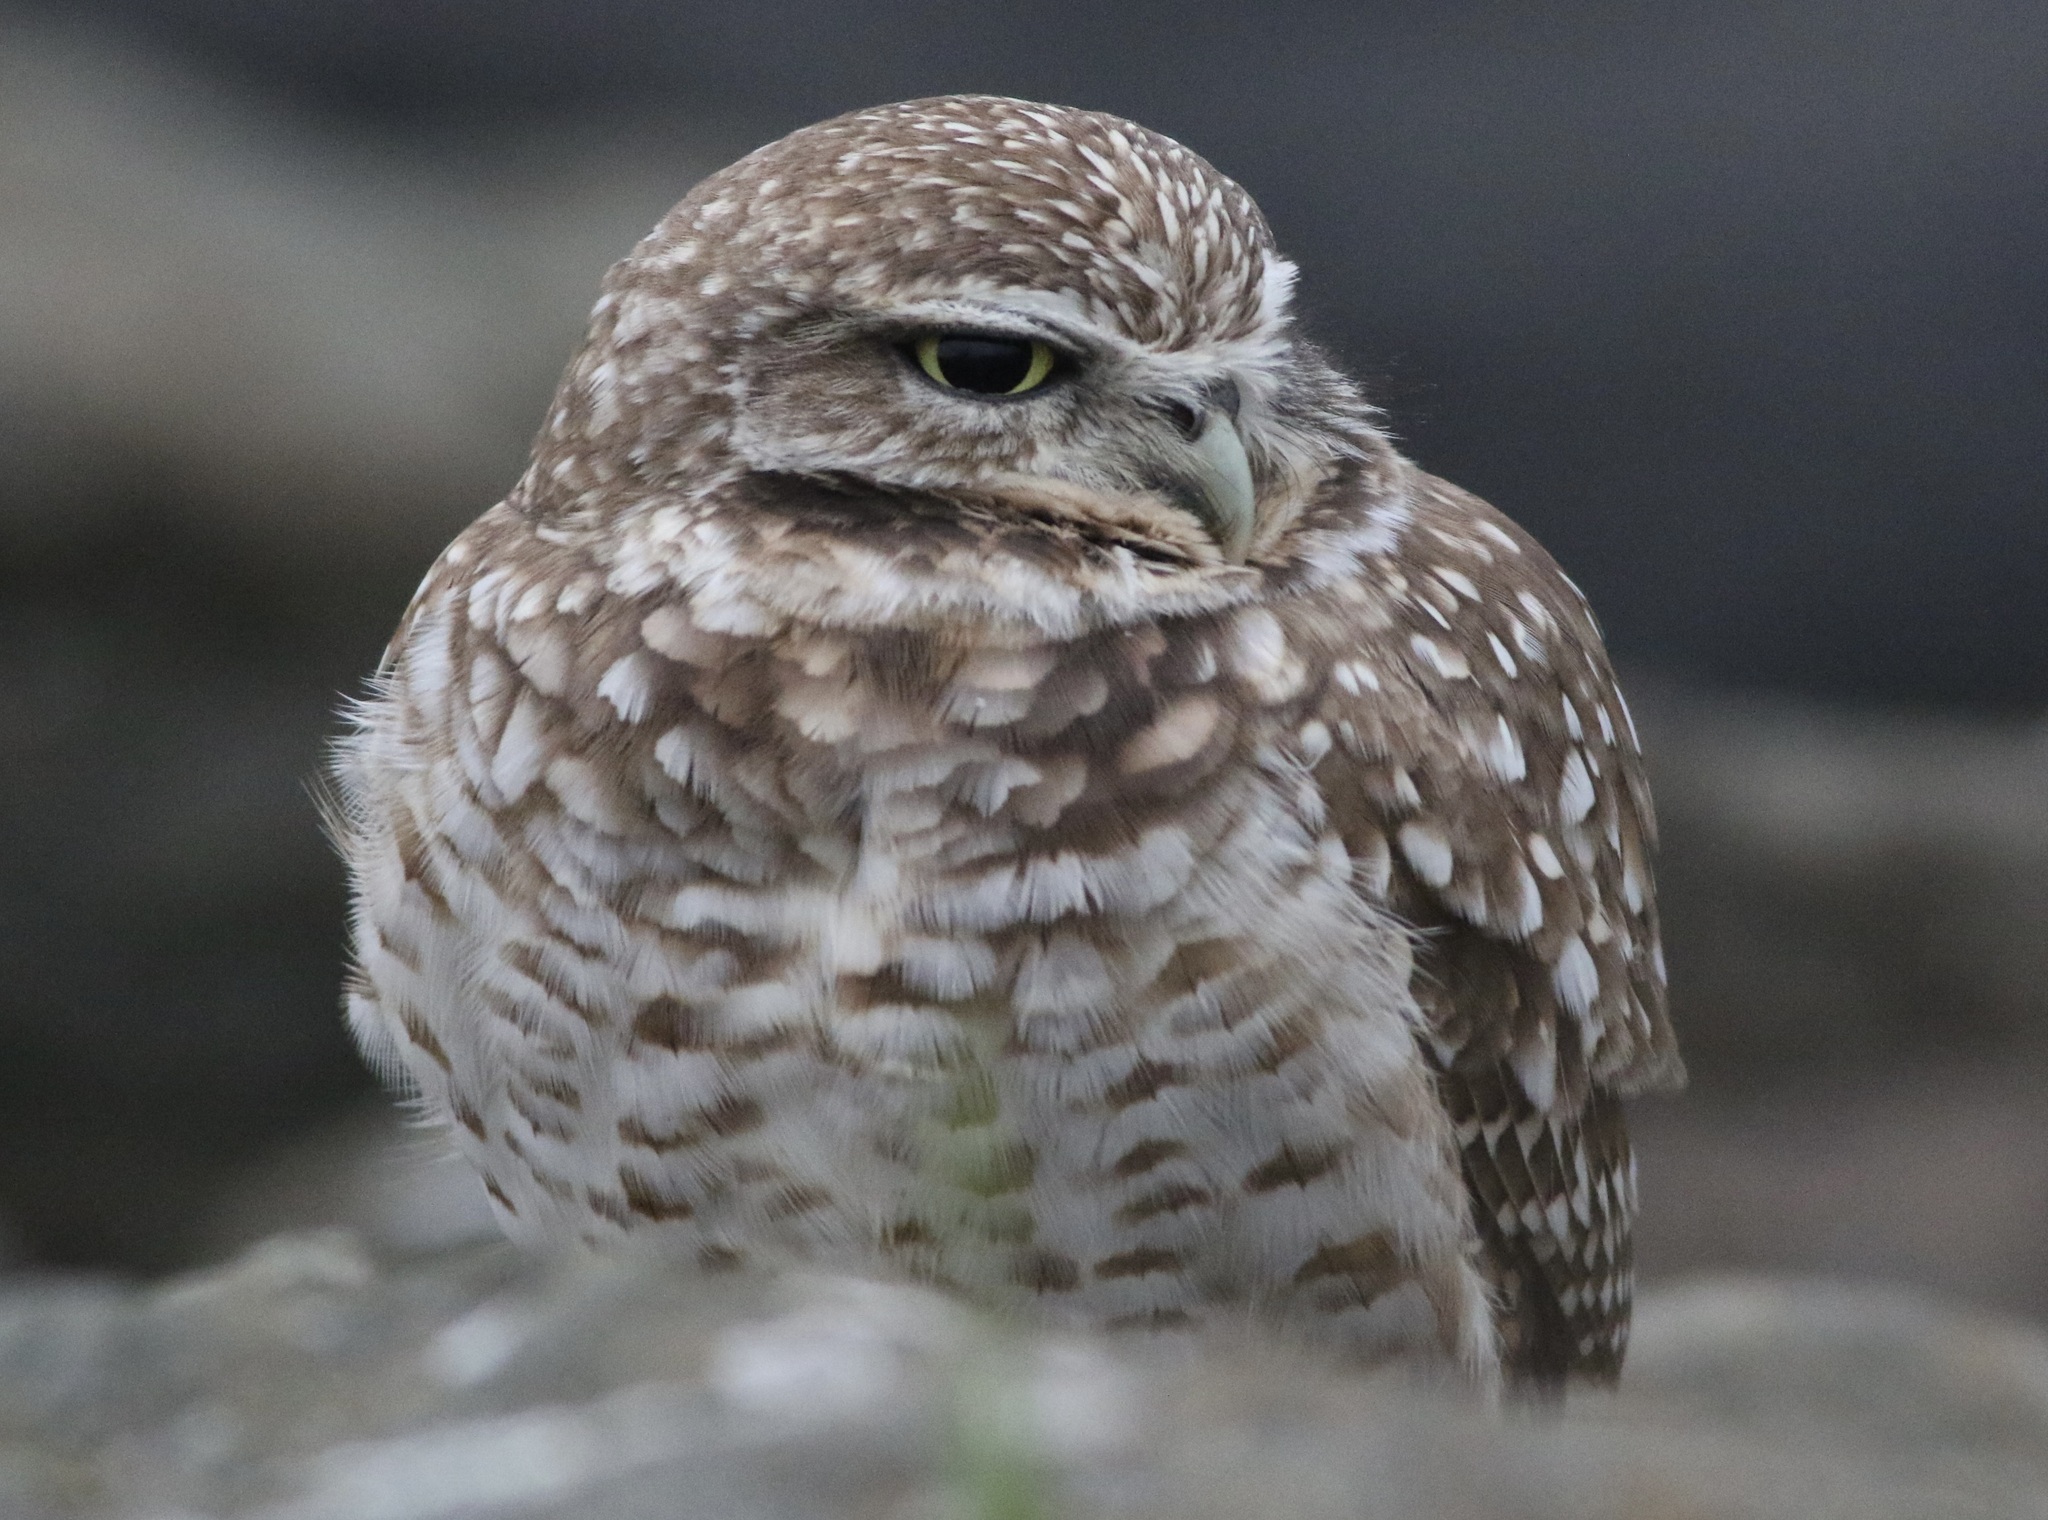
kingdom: Animalia
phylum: Chordata
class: Aves
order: Strigiformes
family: Strigidae
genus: Athene
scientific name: Athene cunicularia
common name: Burrowing owl
